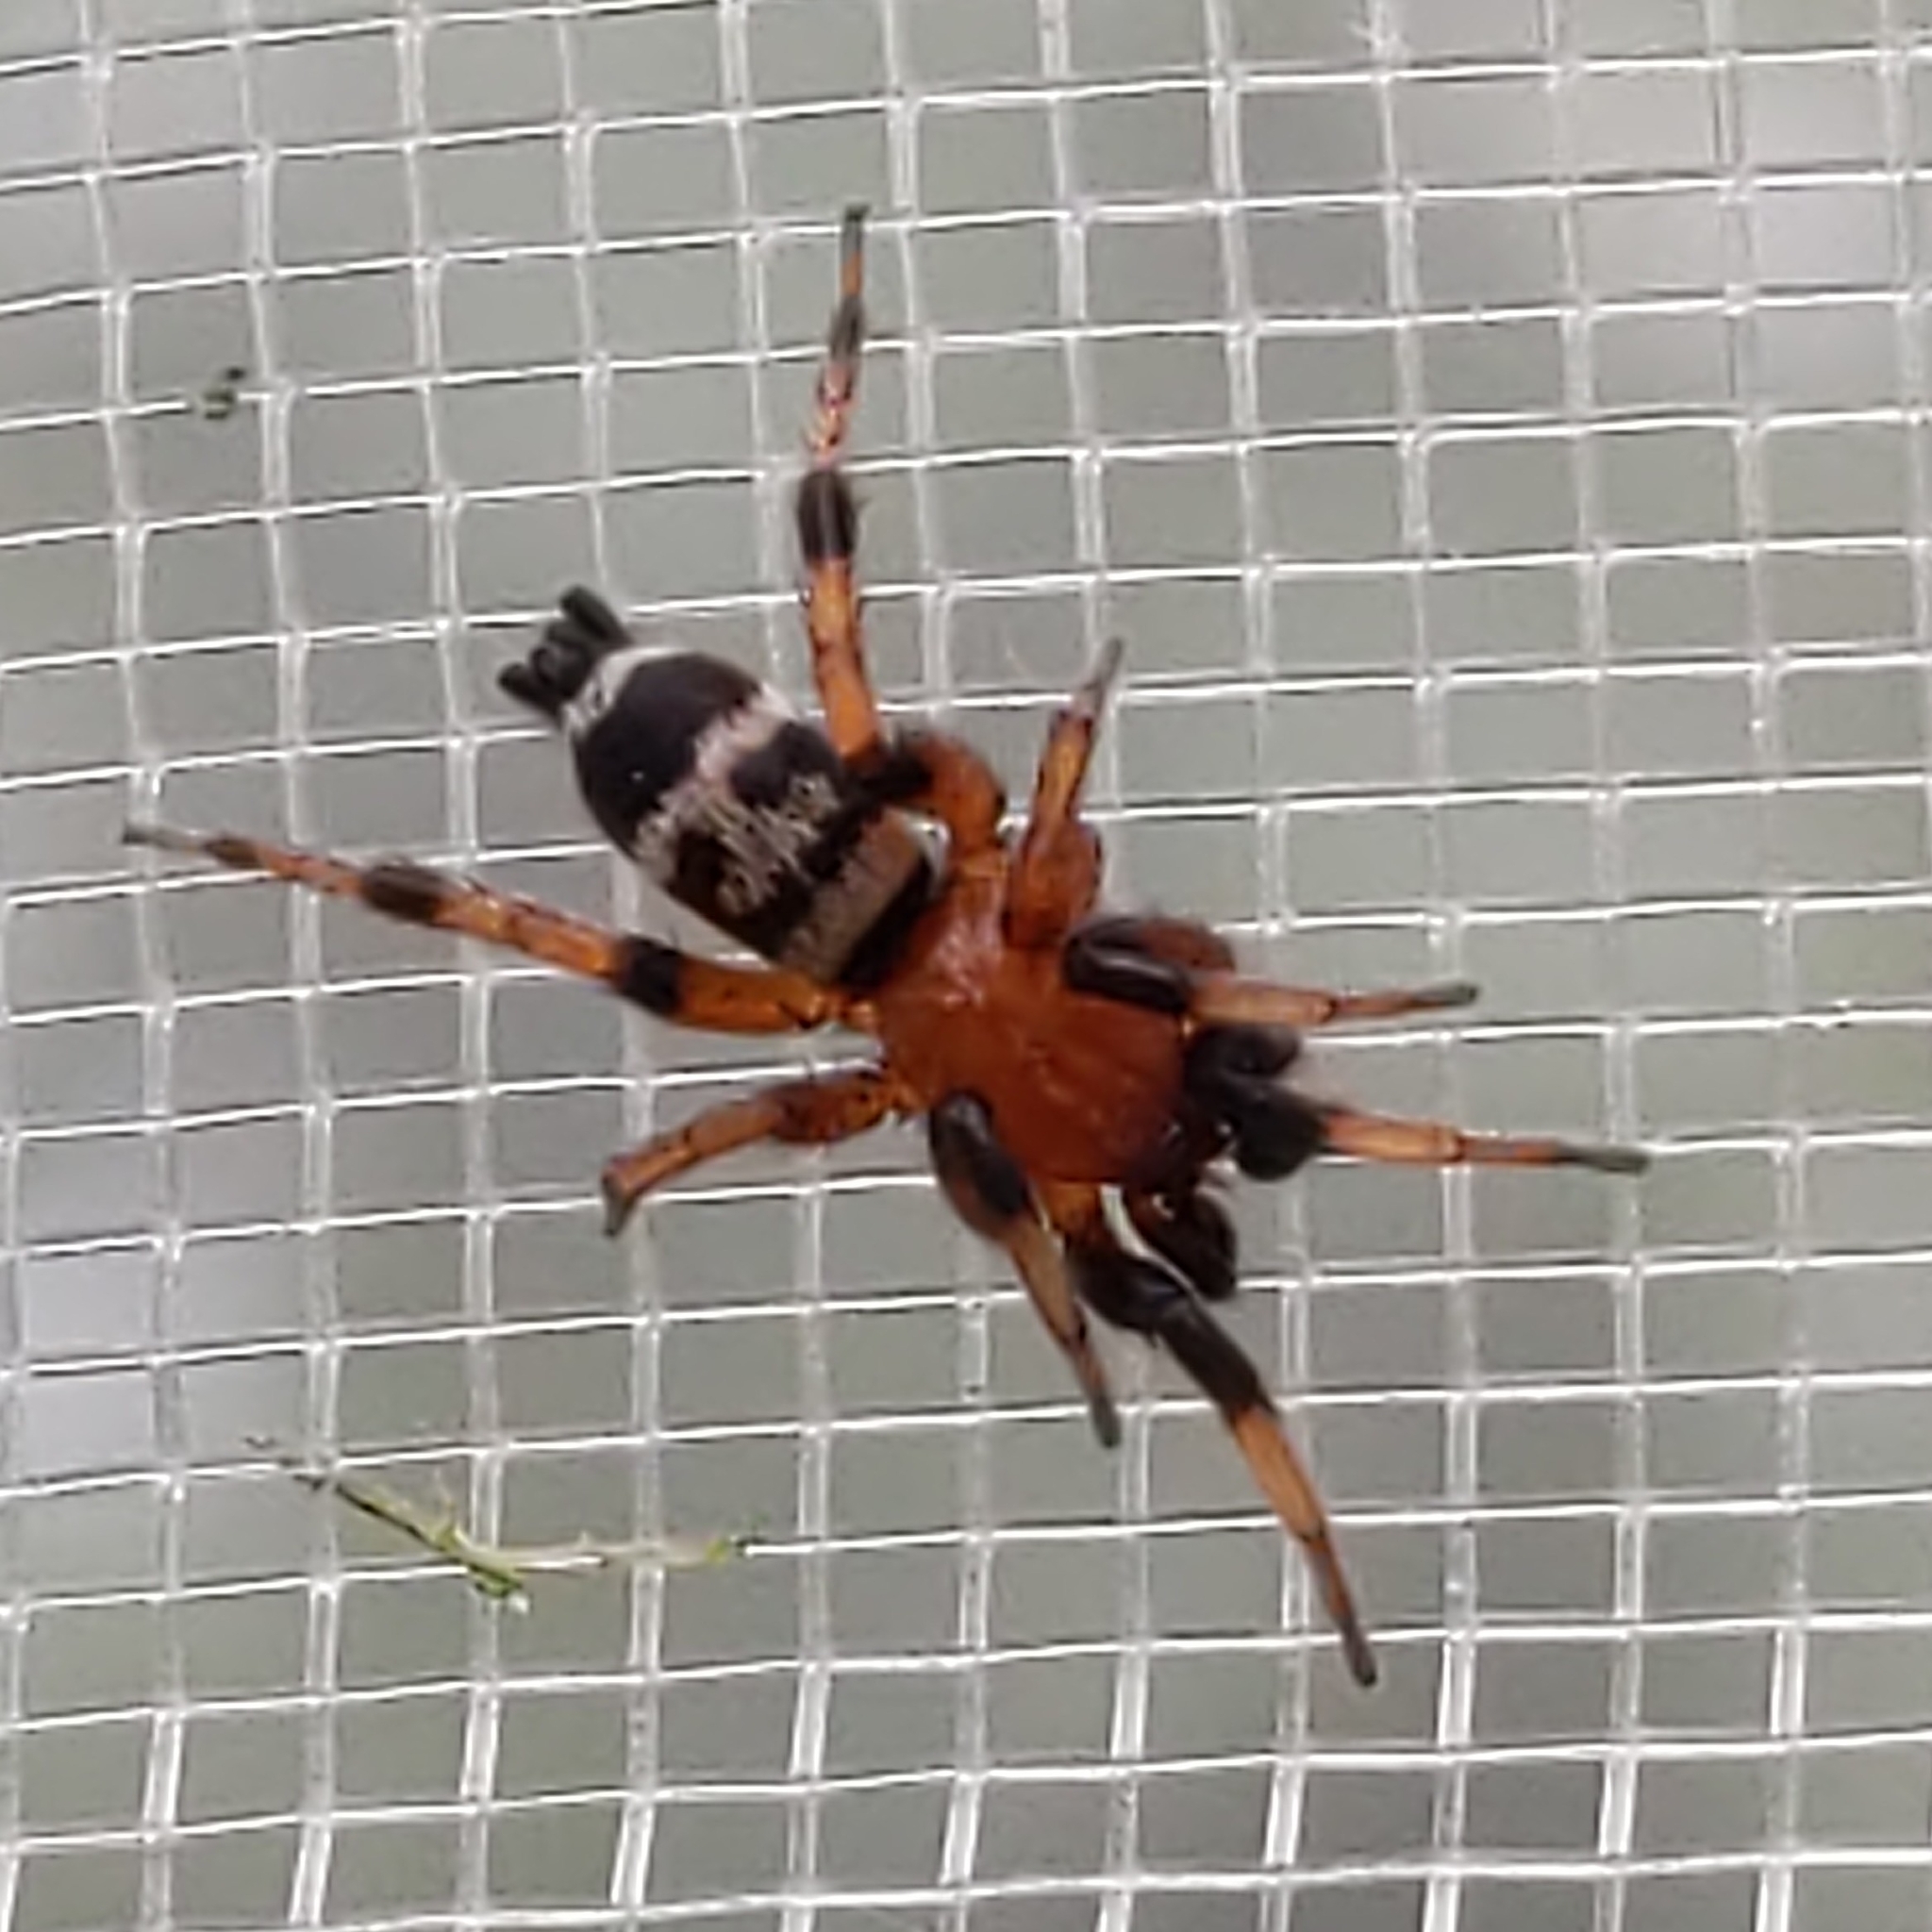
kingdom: Animalia
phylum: Arthropoda
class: Arachnida
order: Araneae
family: Gnaphosidae
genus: Sergiolus
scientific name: Sergiolus capulatus
